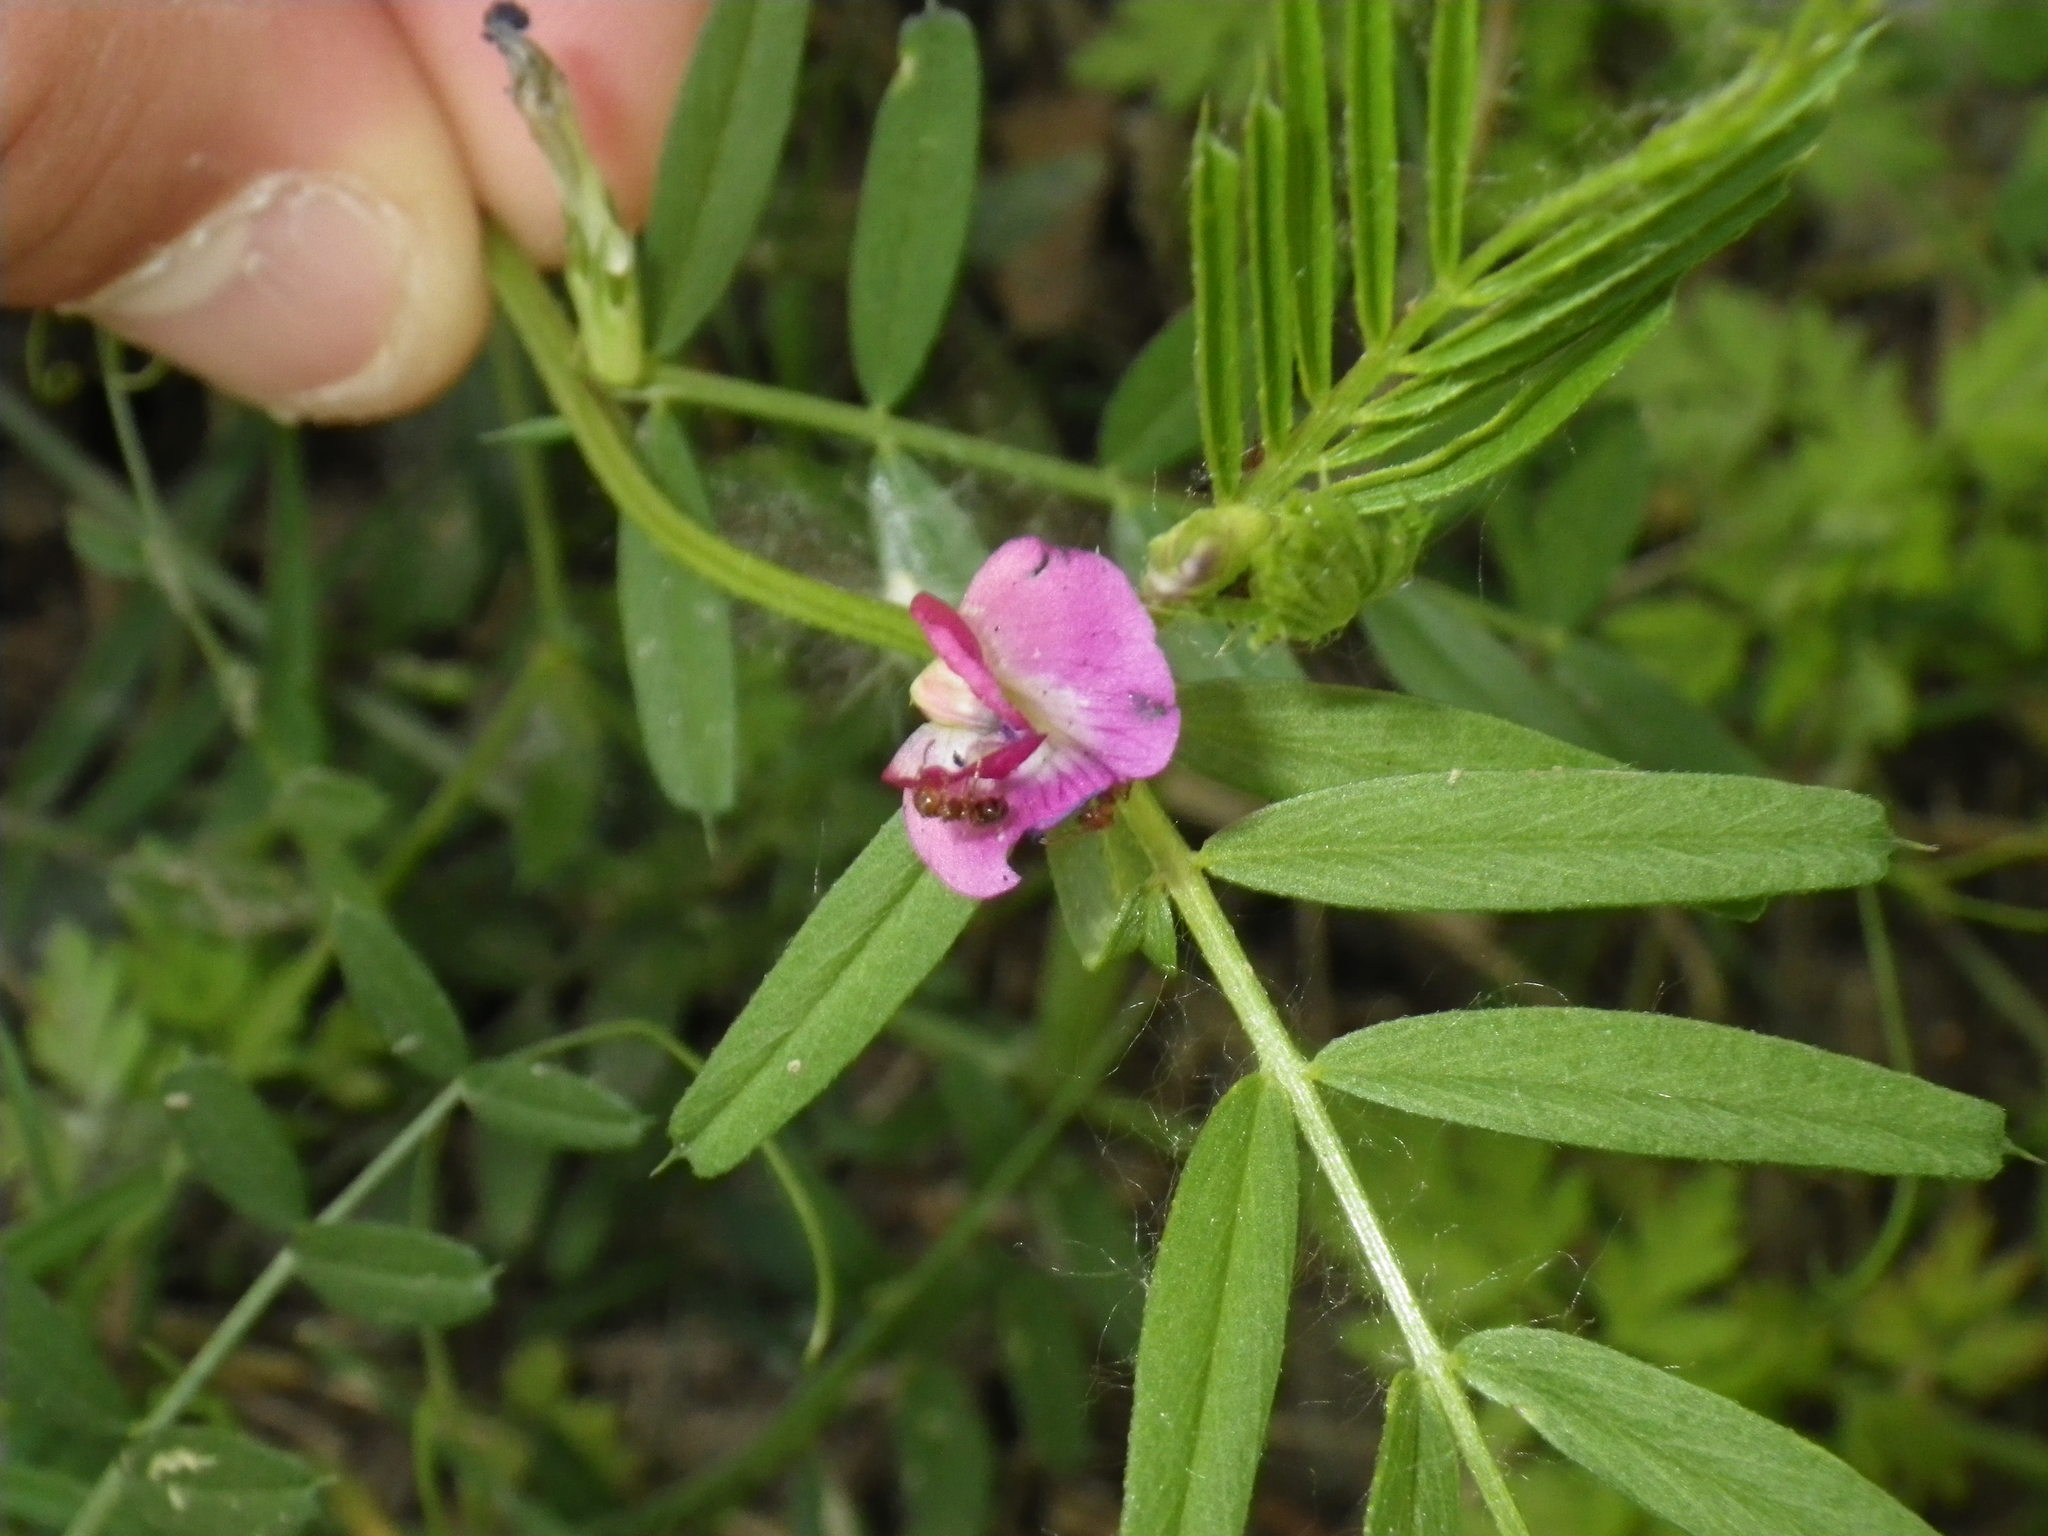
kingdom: Plantae
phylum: Tracheophyta
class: Magnoliopsida
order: Fabales
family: Fabaceae
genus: Vicia
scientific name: Vicia sativa
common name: Garden vetch
